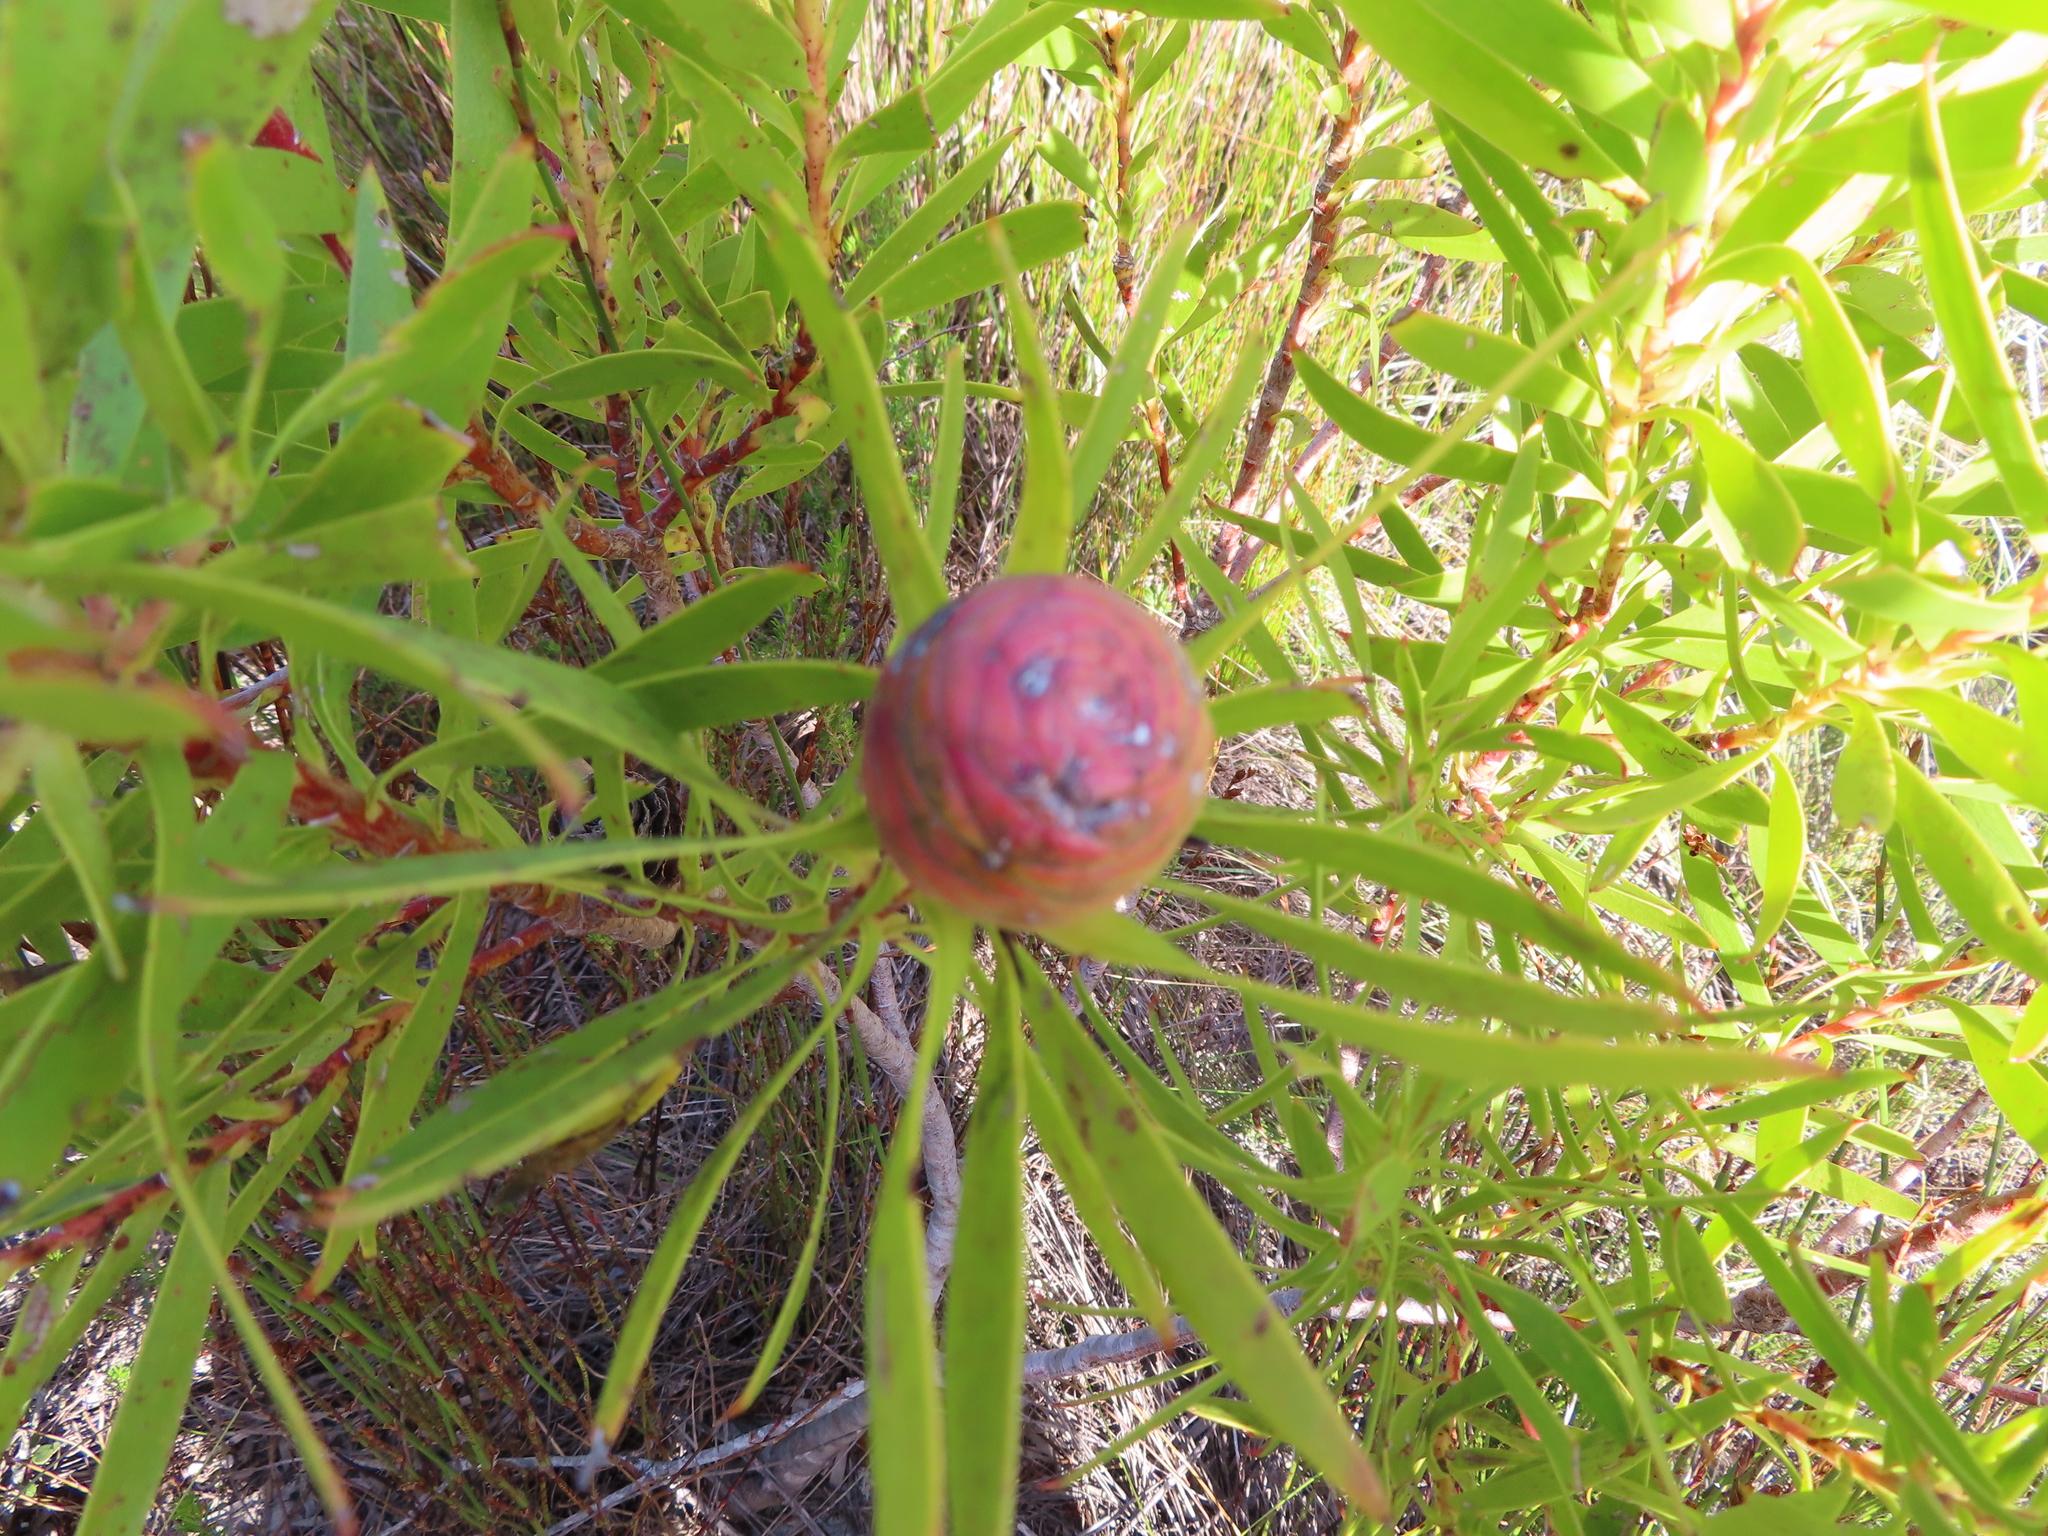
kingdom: Plantae
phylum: Tracheophyta
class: Magnoliopsida
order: Proteales
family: Proteaceae
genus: Leucadendron
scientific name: Leucadendron coniferum
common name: Dune conebush
